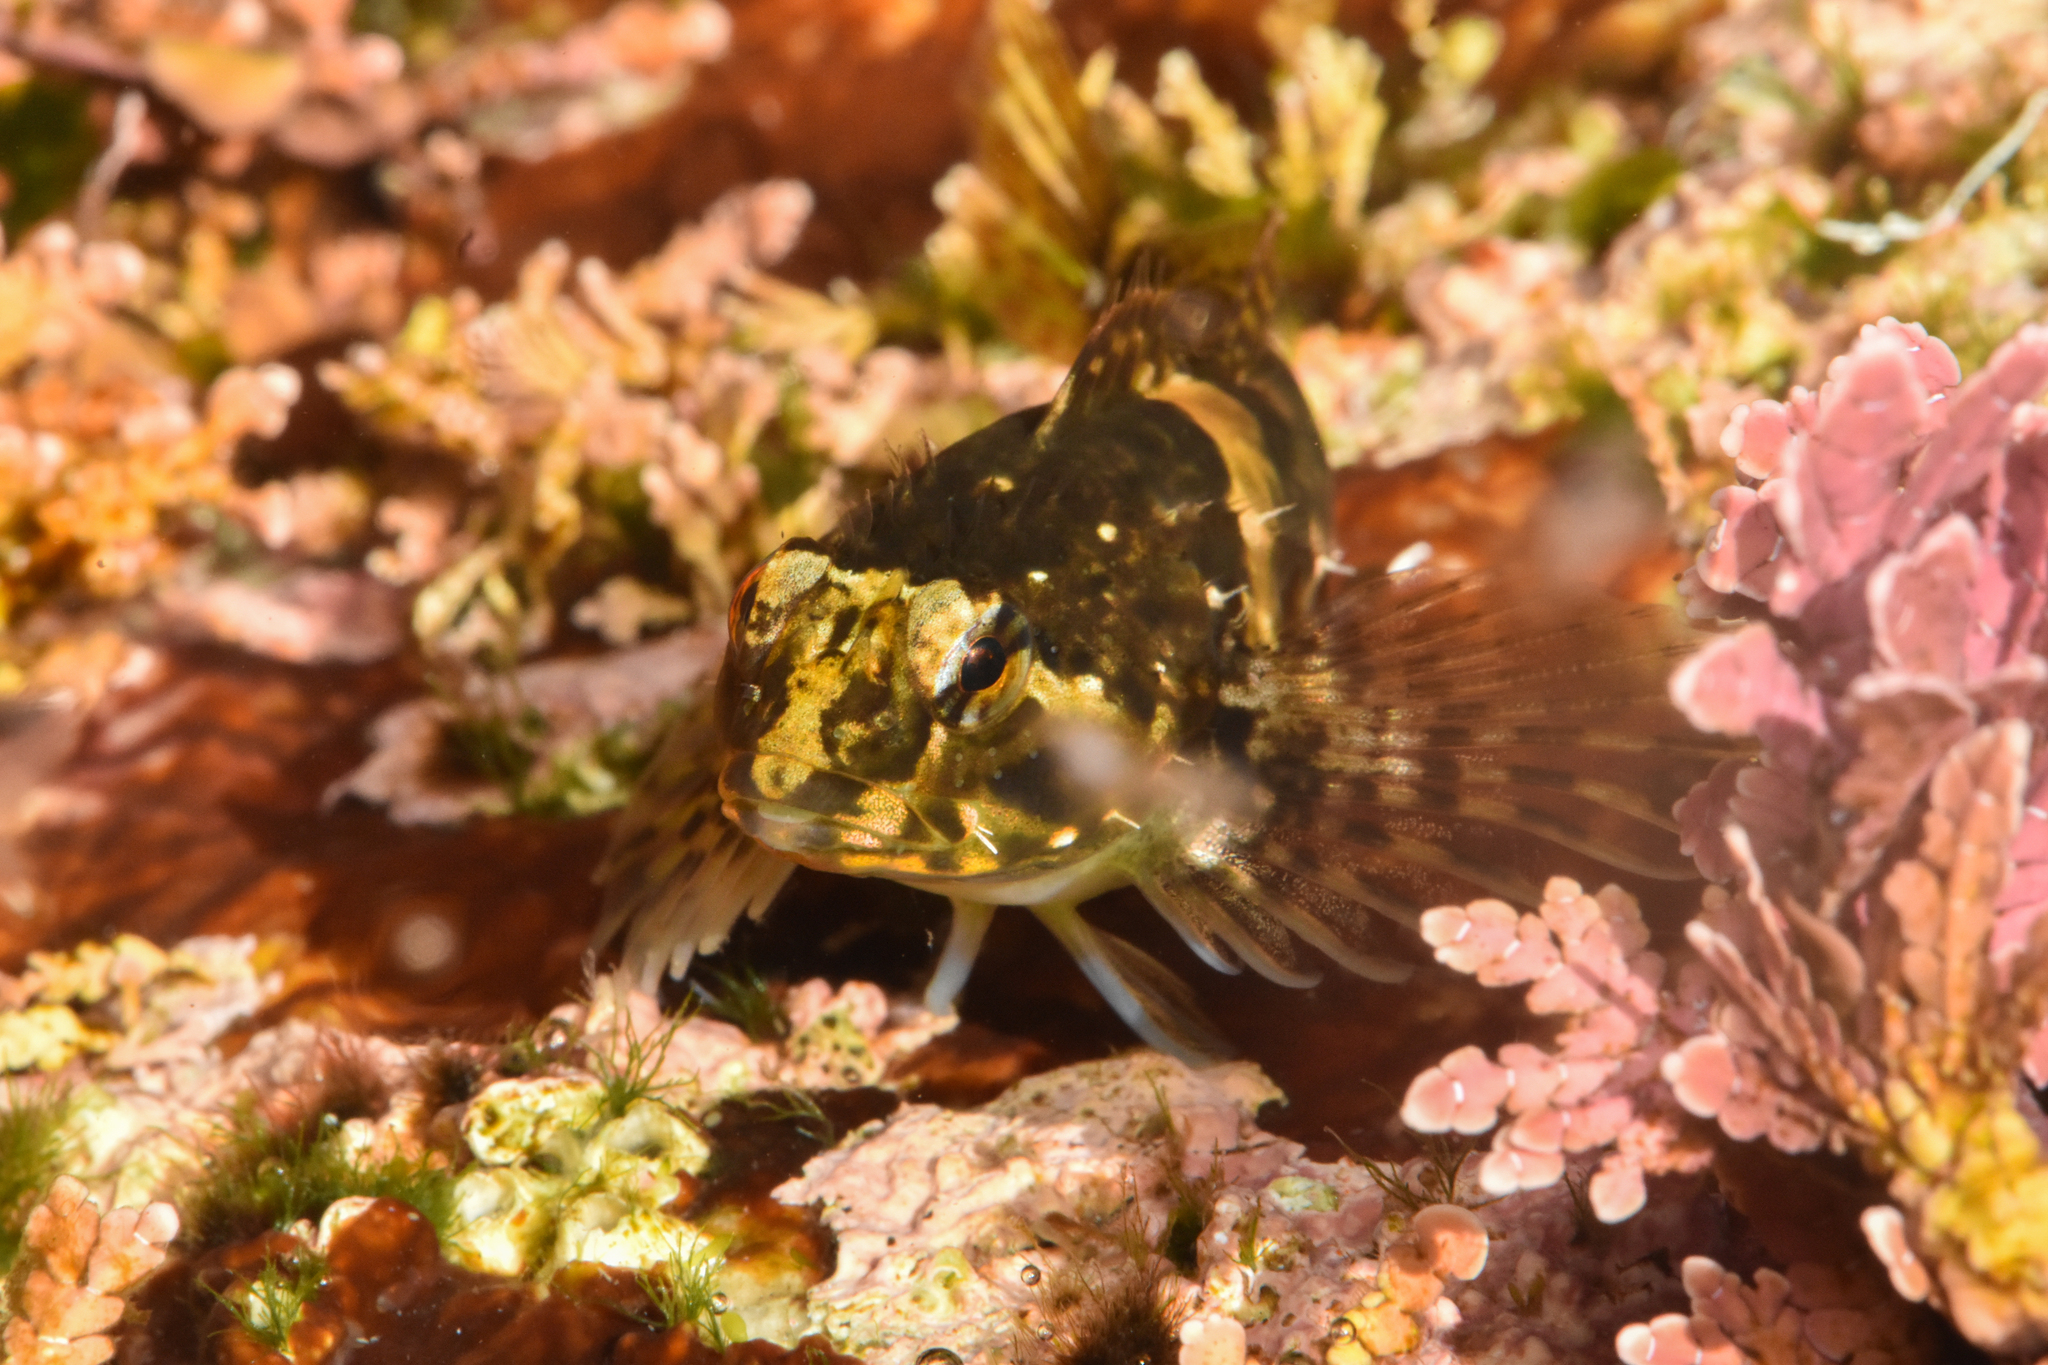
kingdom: Animalia
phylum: Chordata
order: Scorpaeniformes
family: Cottidae
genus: Oligocottus
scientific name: Oligocottus maculosus
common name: Tidepool sculpin
